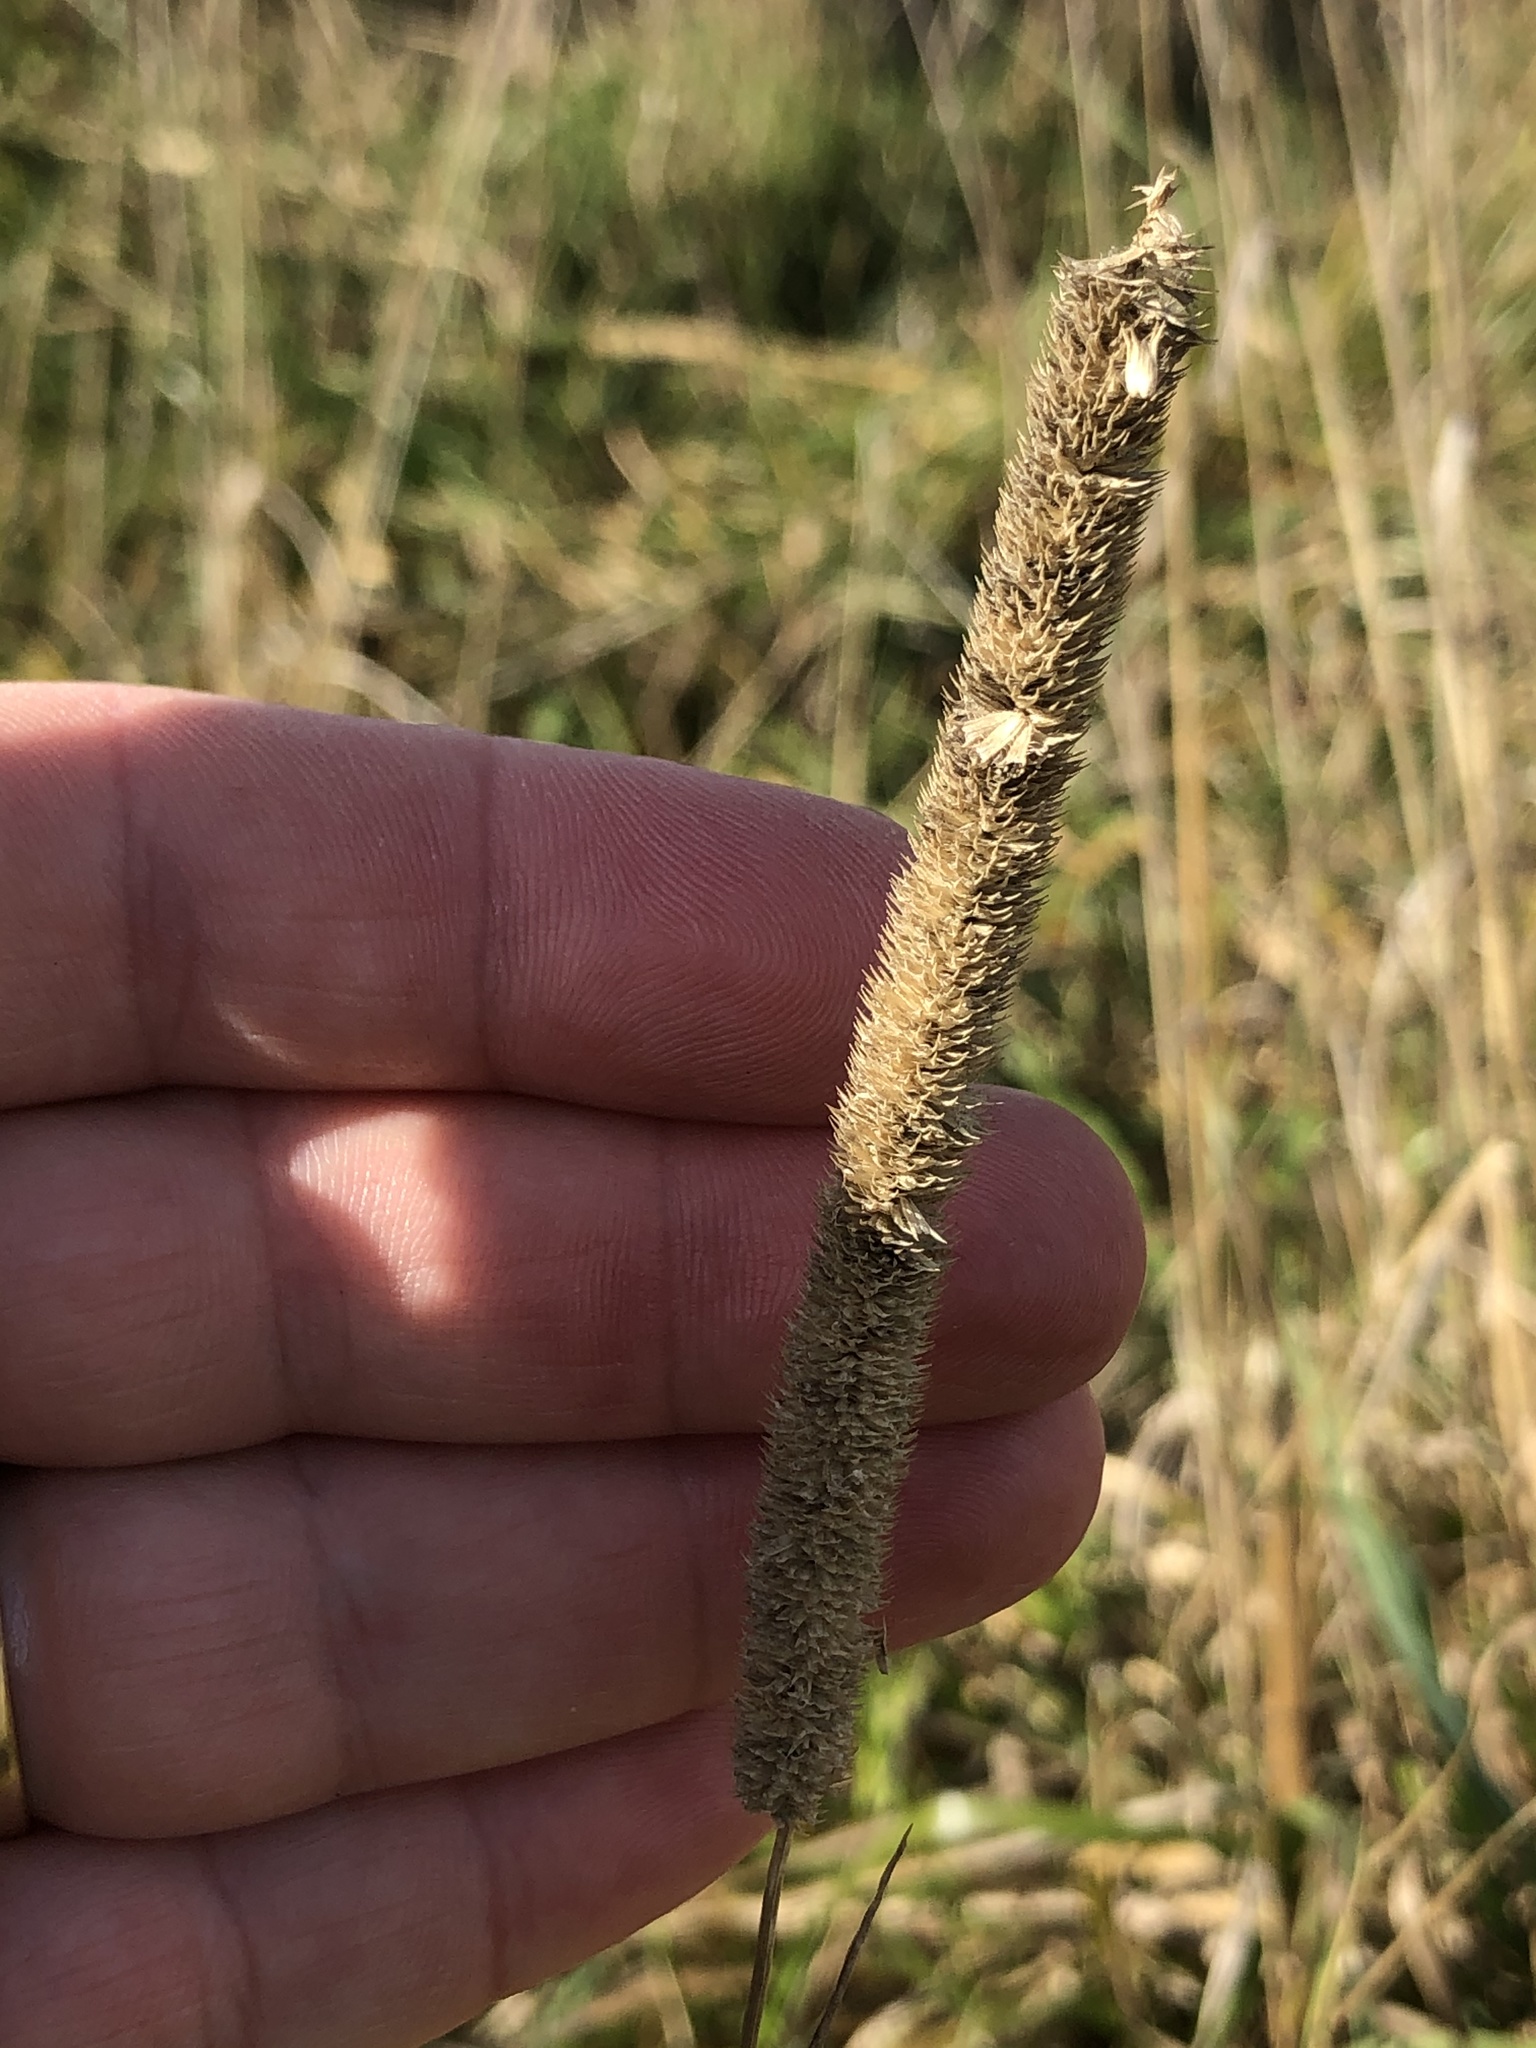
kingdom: Plantae
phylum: Tracheophyta
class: Liliopsida
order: Poales
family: Poaceae
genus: Phleum
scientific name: Phleum pratense
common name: Timothy grass
